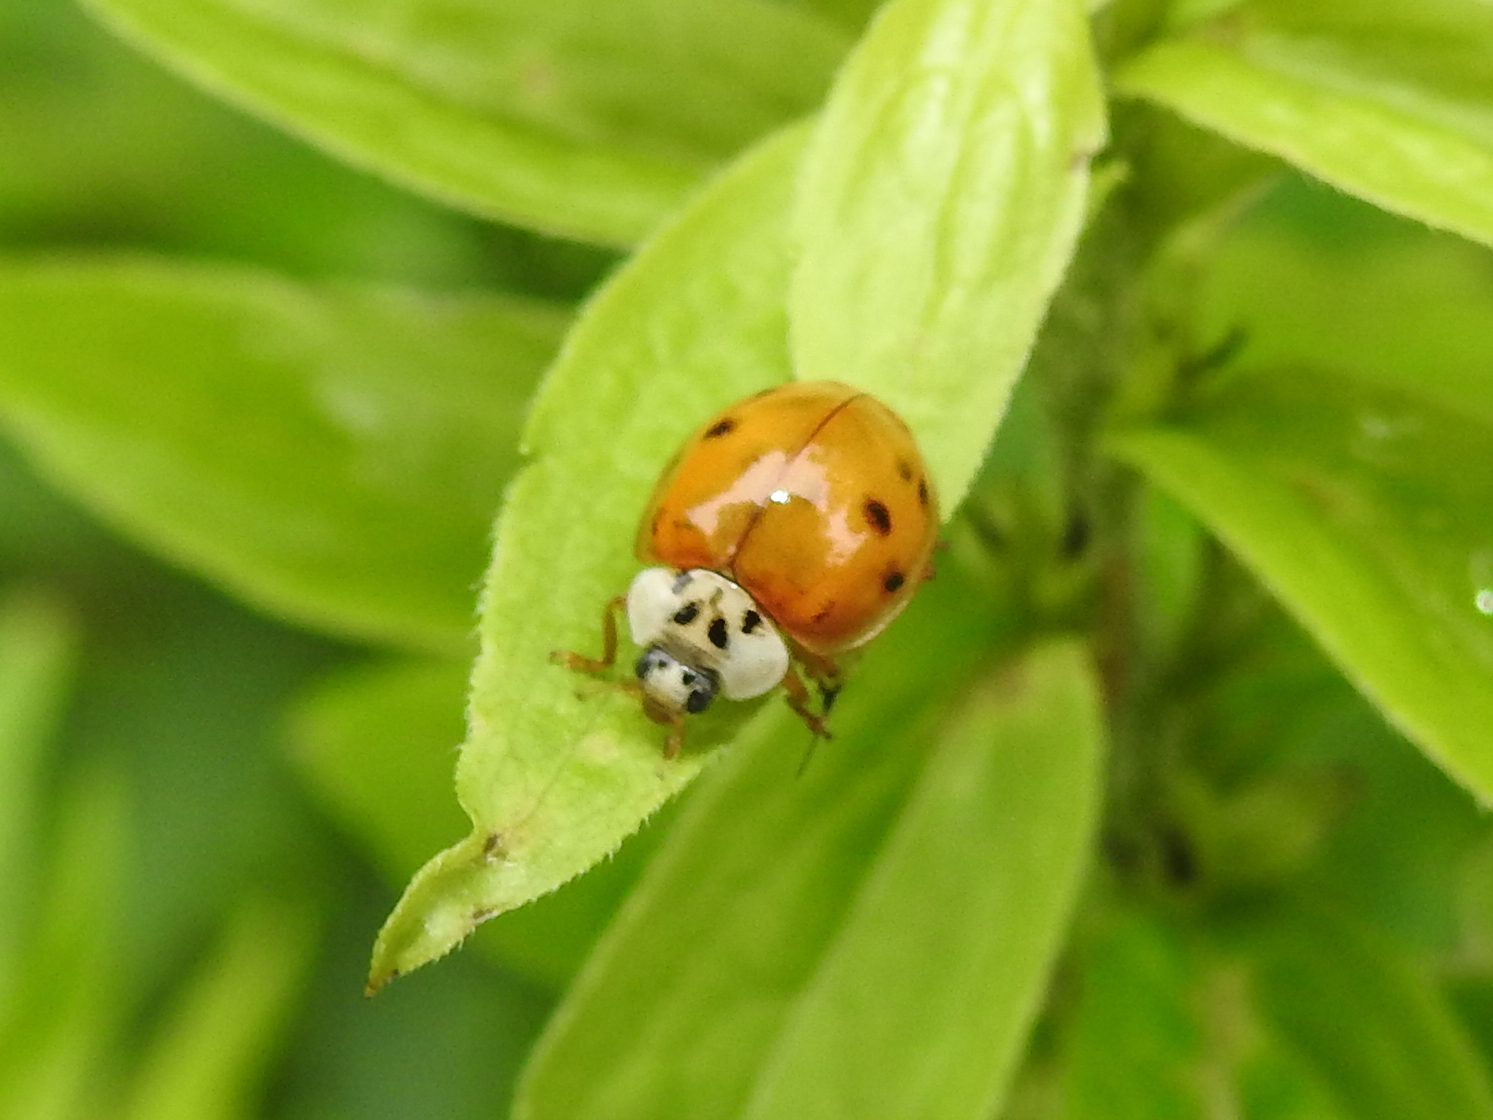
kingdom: Animalia
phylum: Arthropoda
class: Insecta
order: Coleoptera
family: Coccinellidae
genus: Harmonia
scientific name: Harmonia axyridis
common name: Harlequin ladybird
